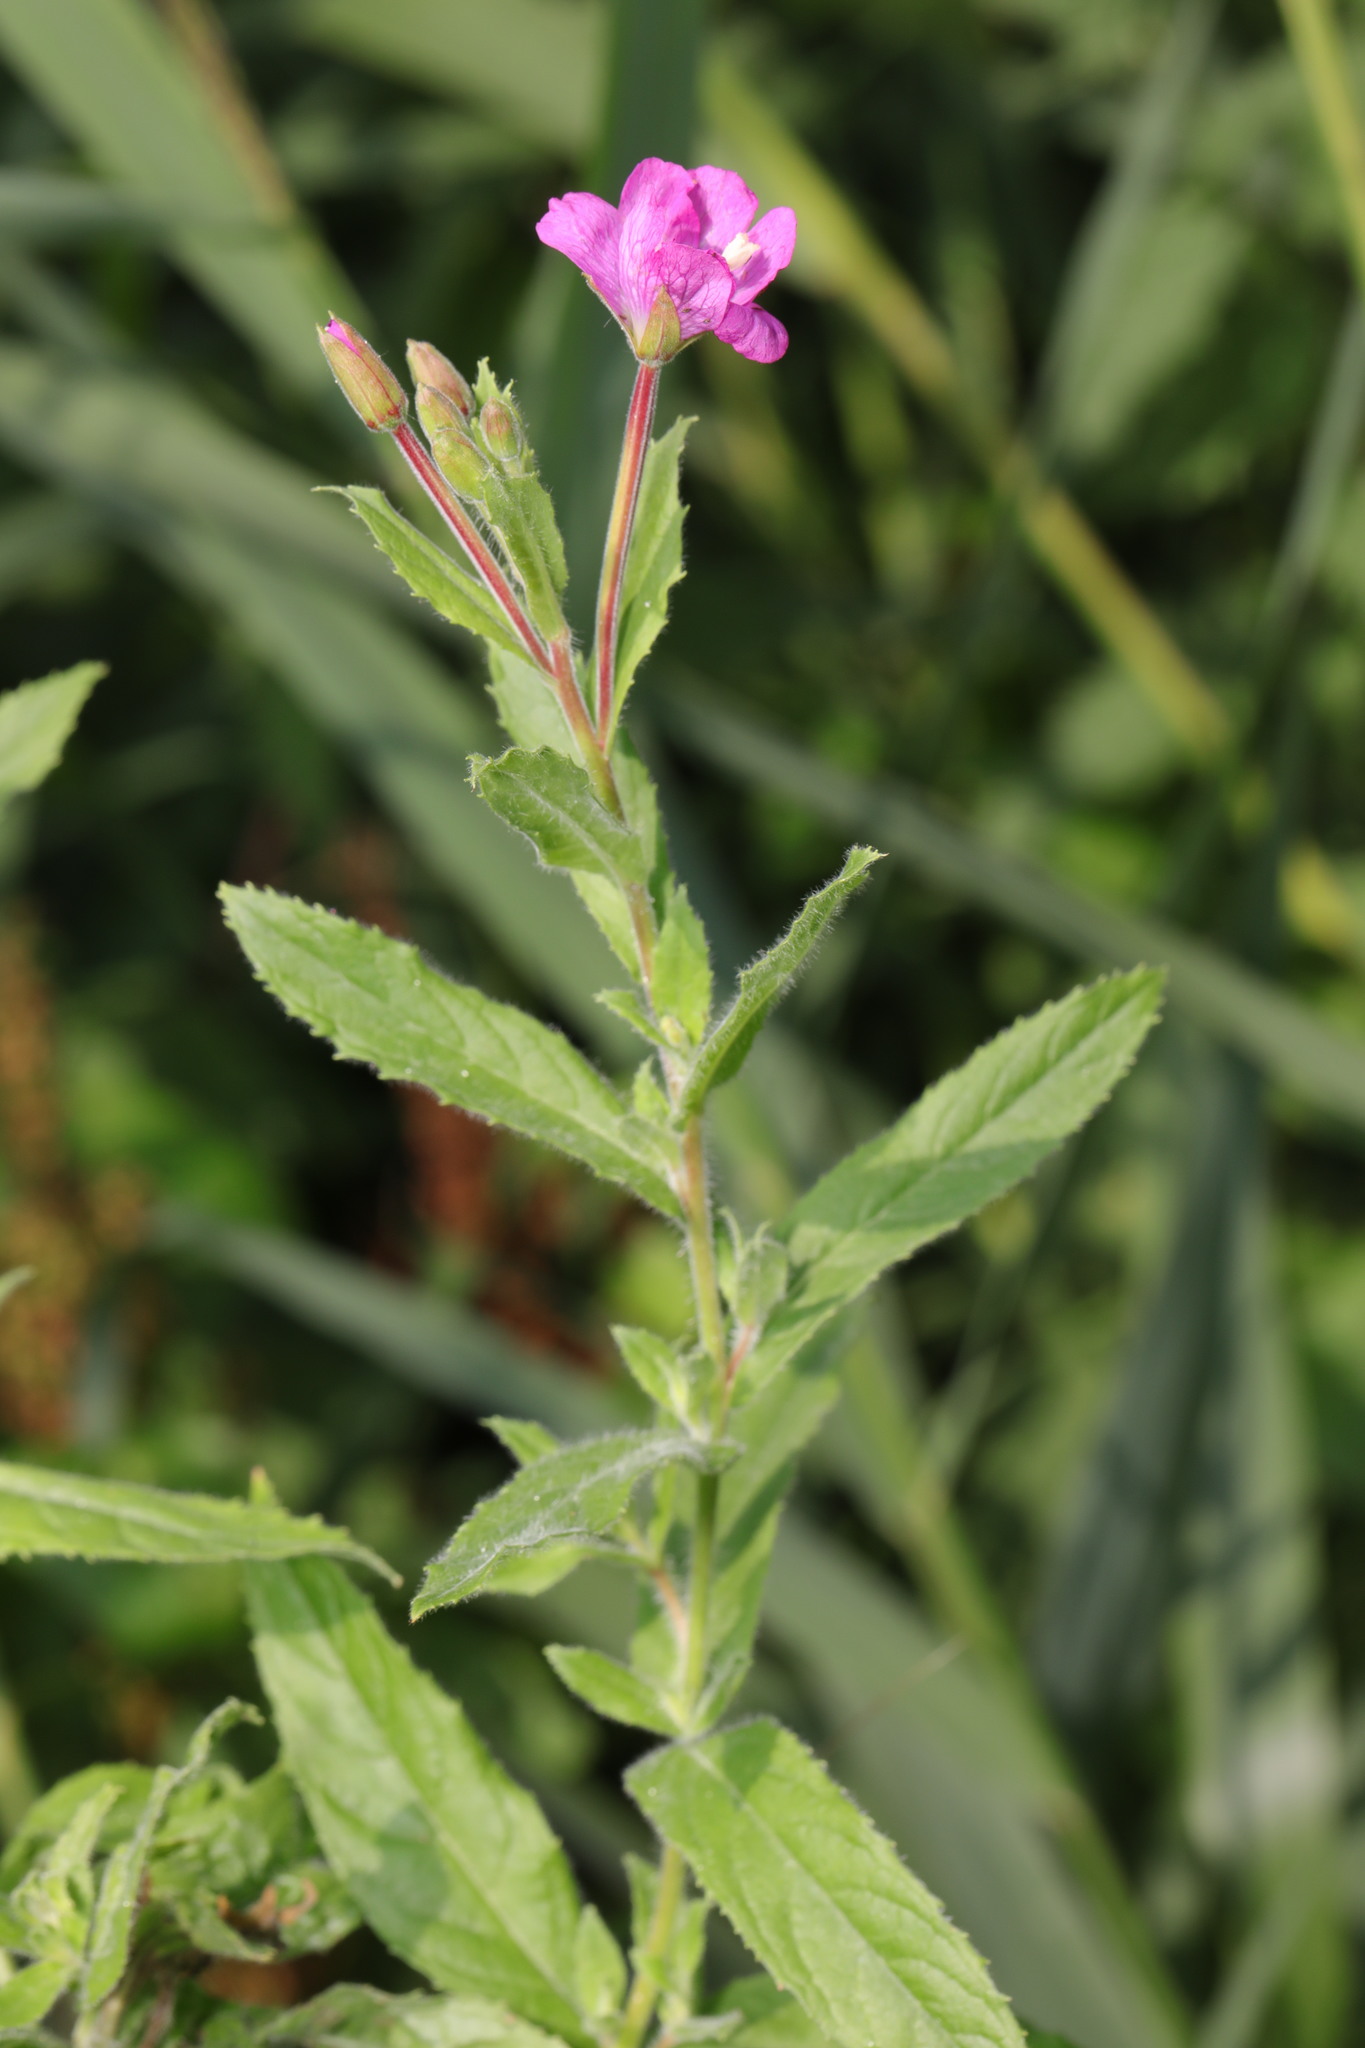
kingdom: Plantae
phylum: Tracheophyta
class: Magnoliopsida
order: Myrtales
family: Onagraceae
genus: Epilobium
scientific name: Epilobium hirsutum
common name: Great willowherb
